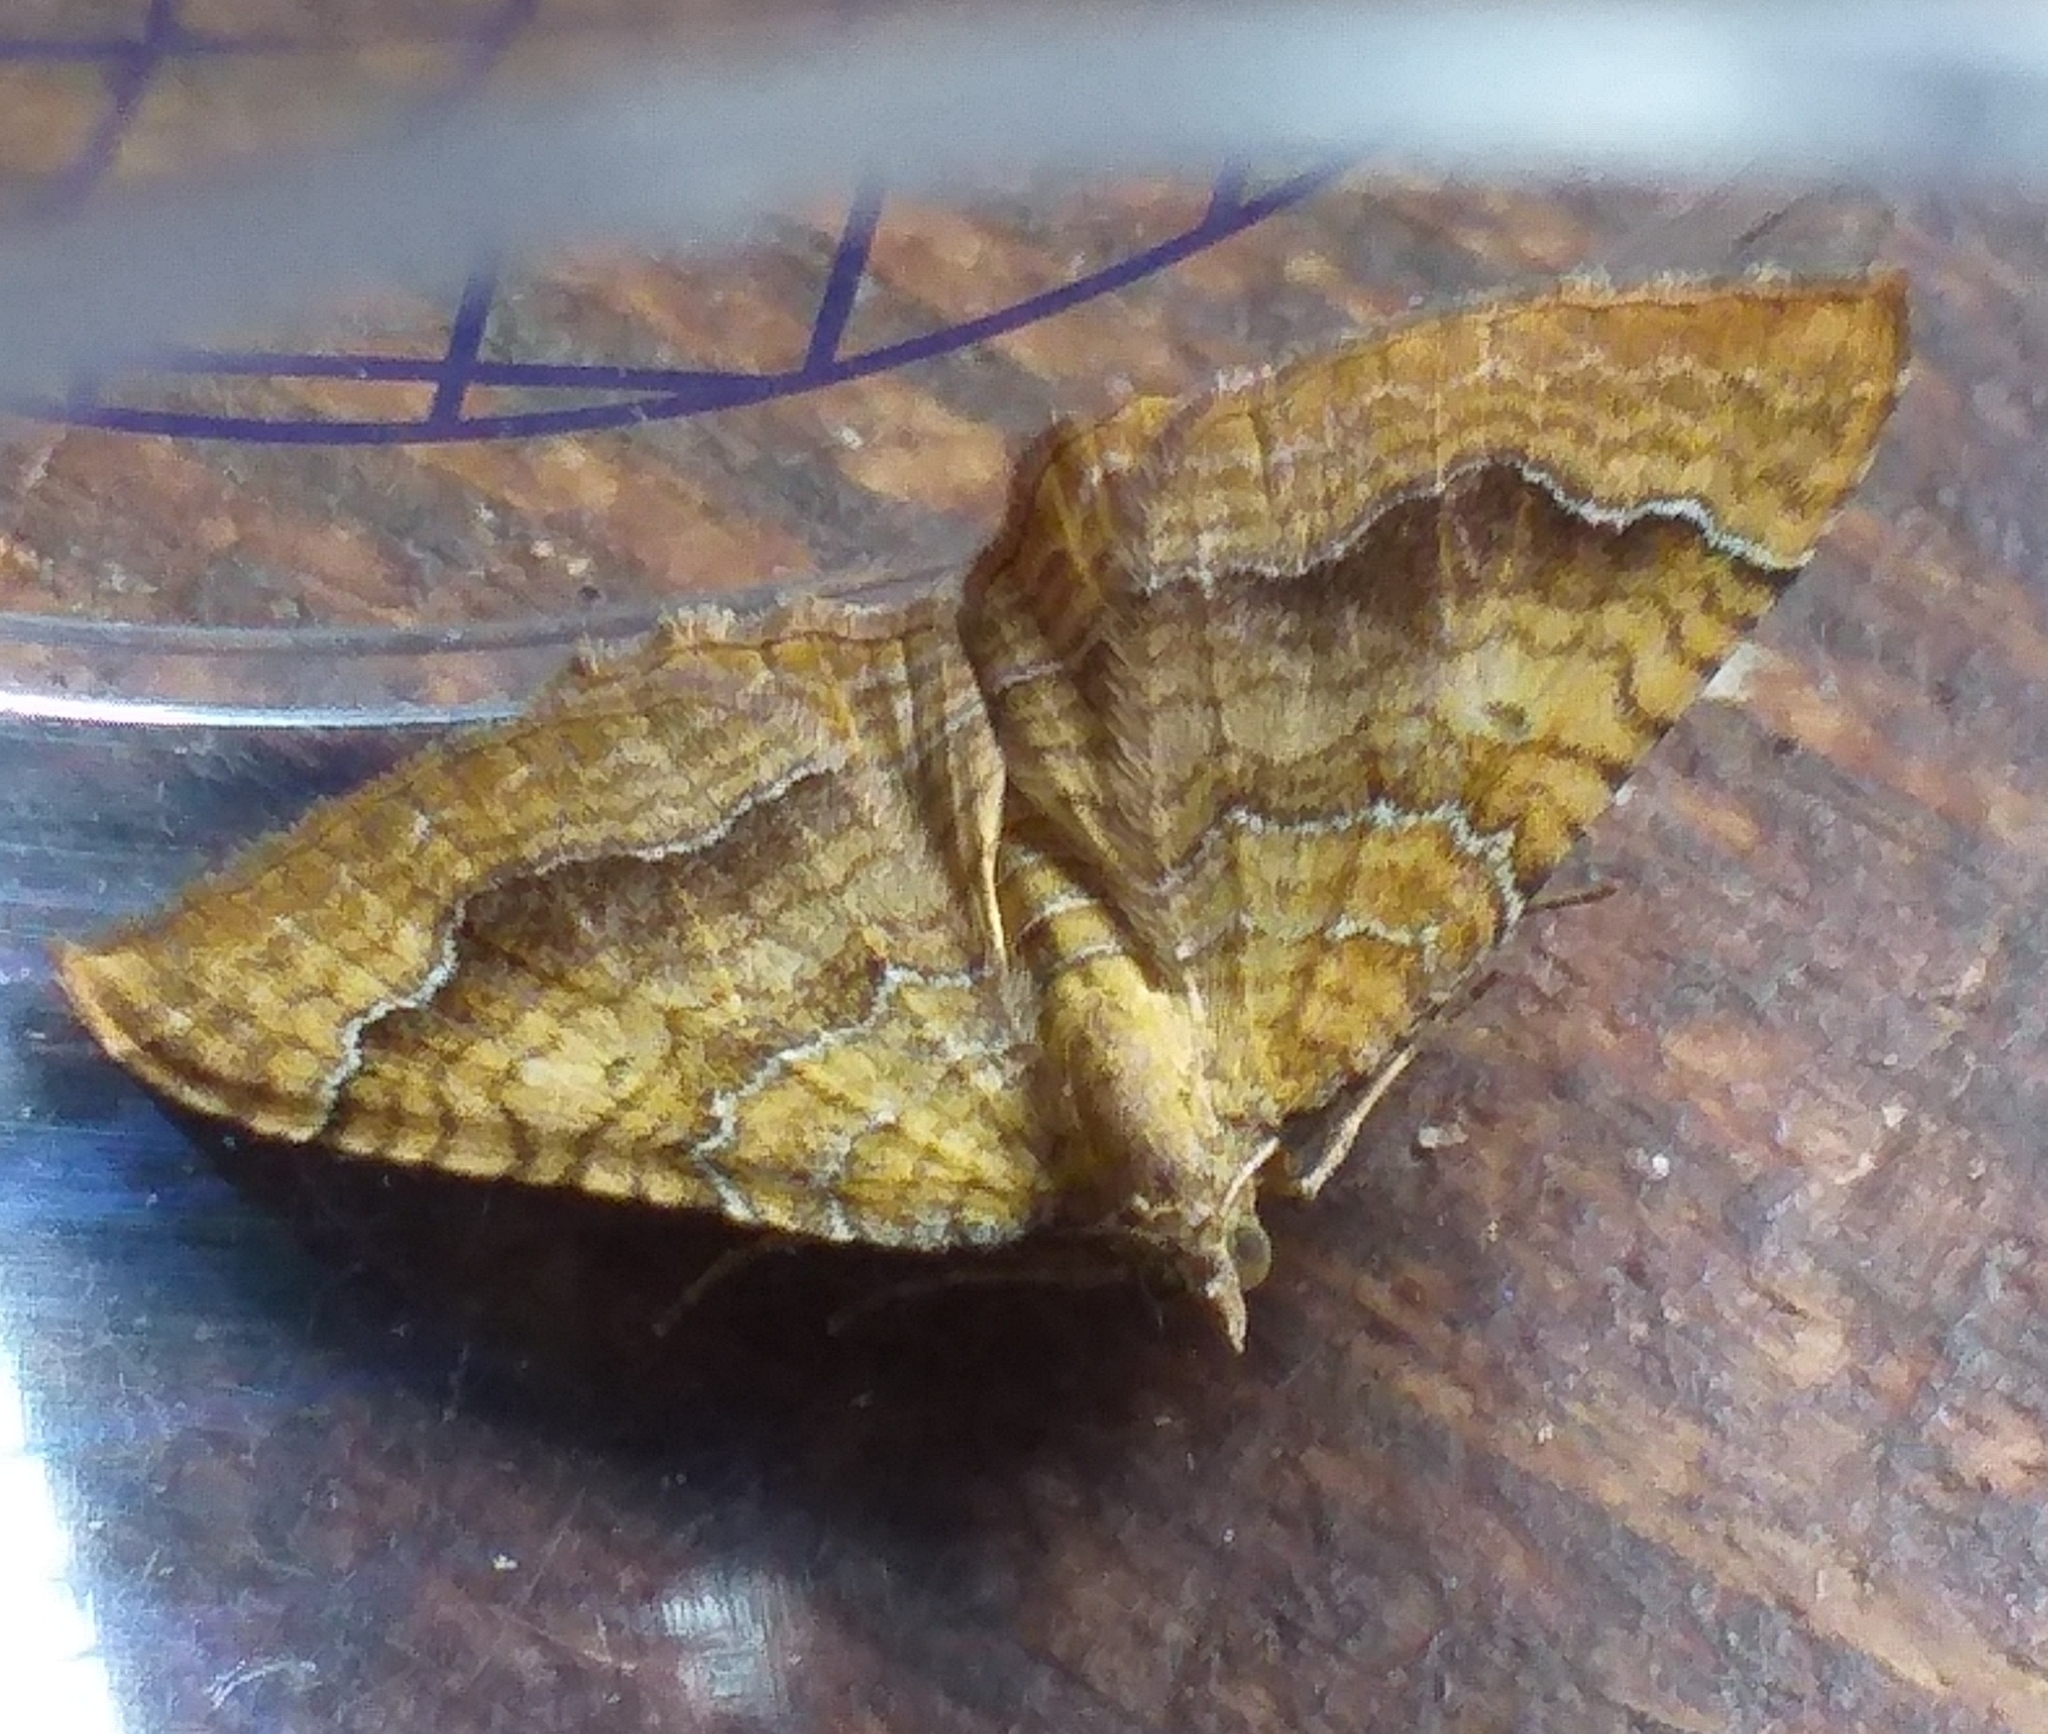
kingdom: Animalia
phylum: Arthropoda
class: Insecta
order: Lepidoptera
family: Geometridae
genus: Camptogramma
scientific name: Camptogramma bilineata
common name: Yellow shell
